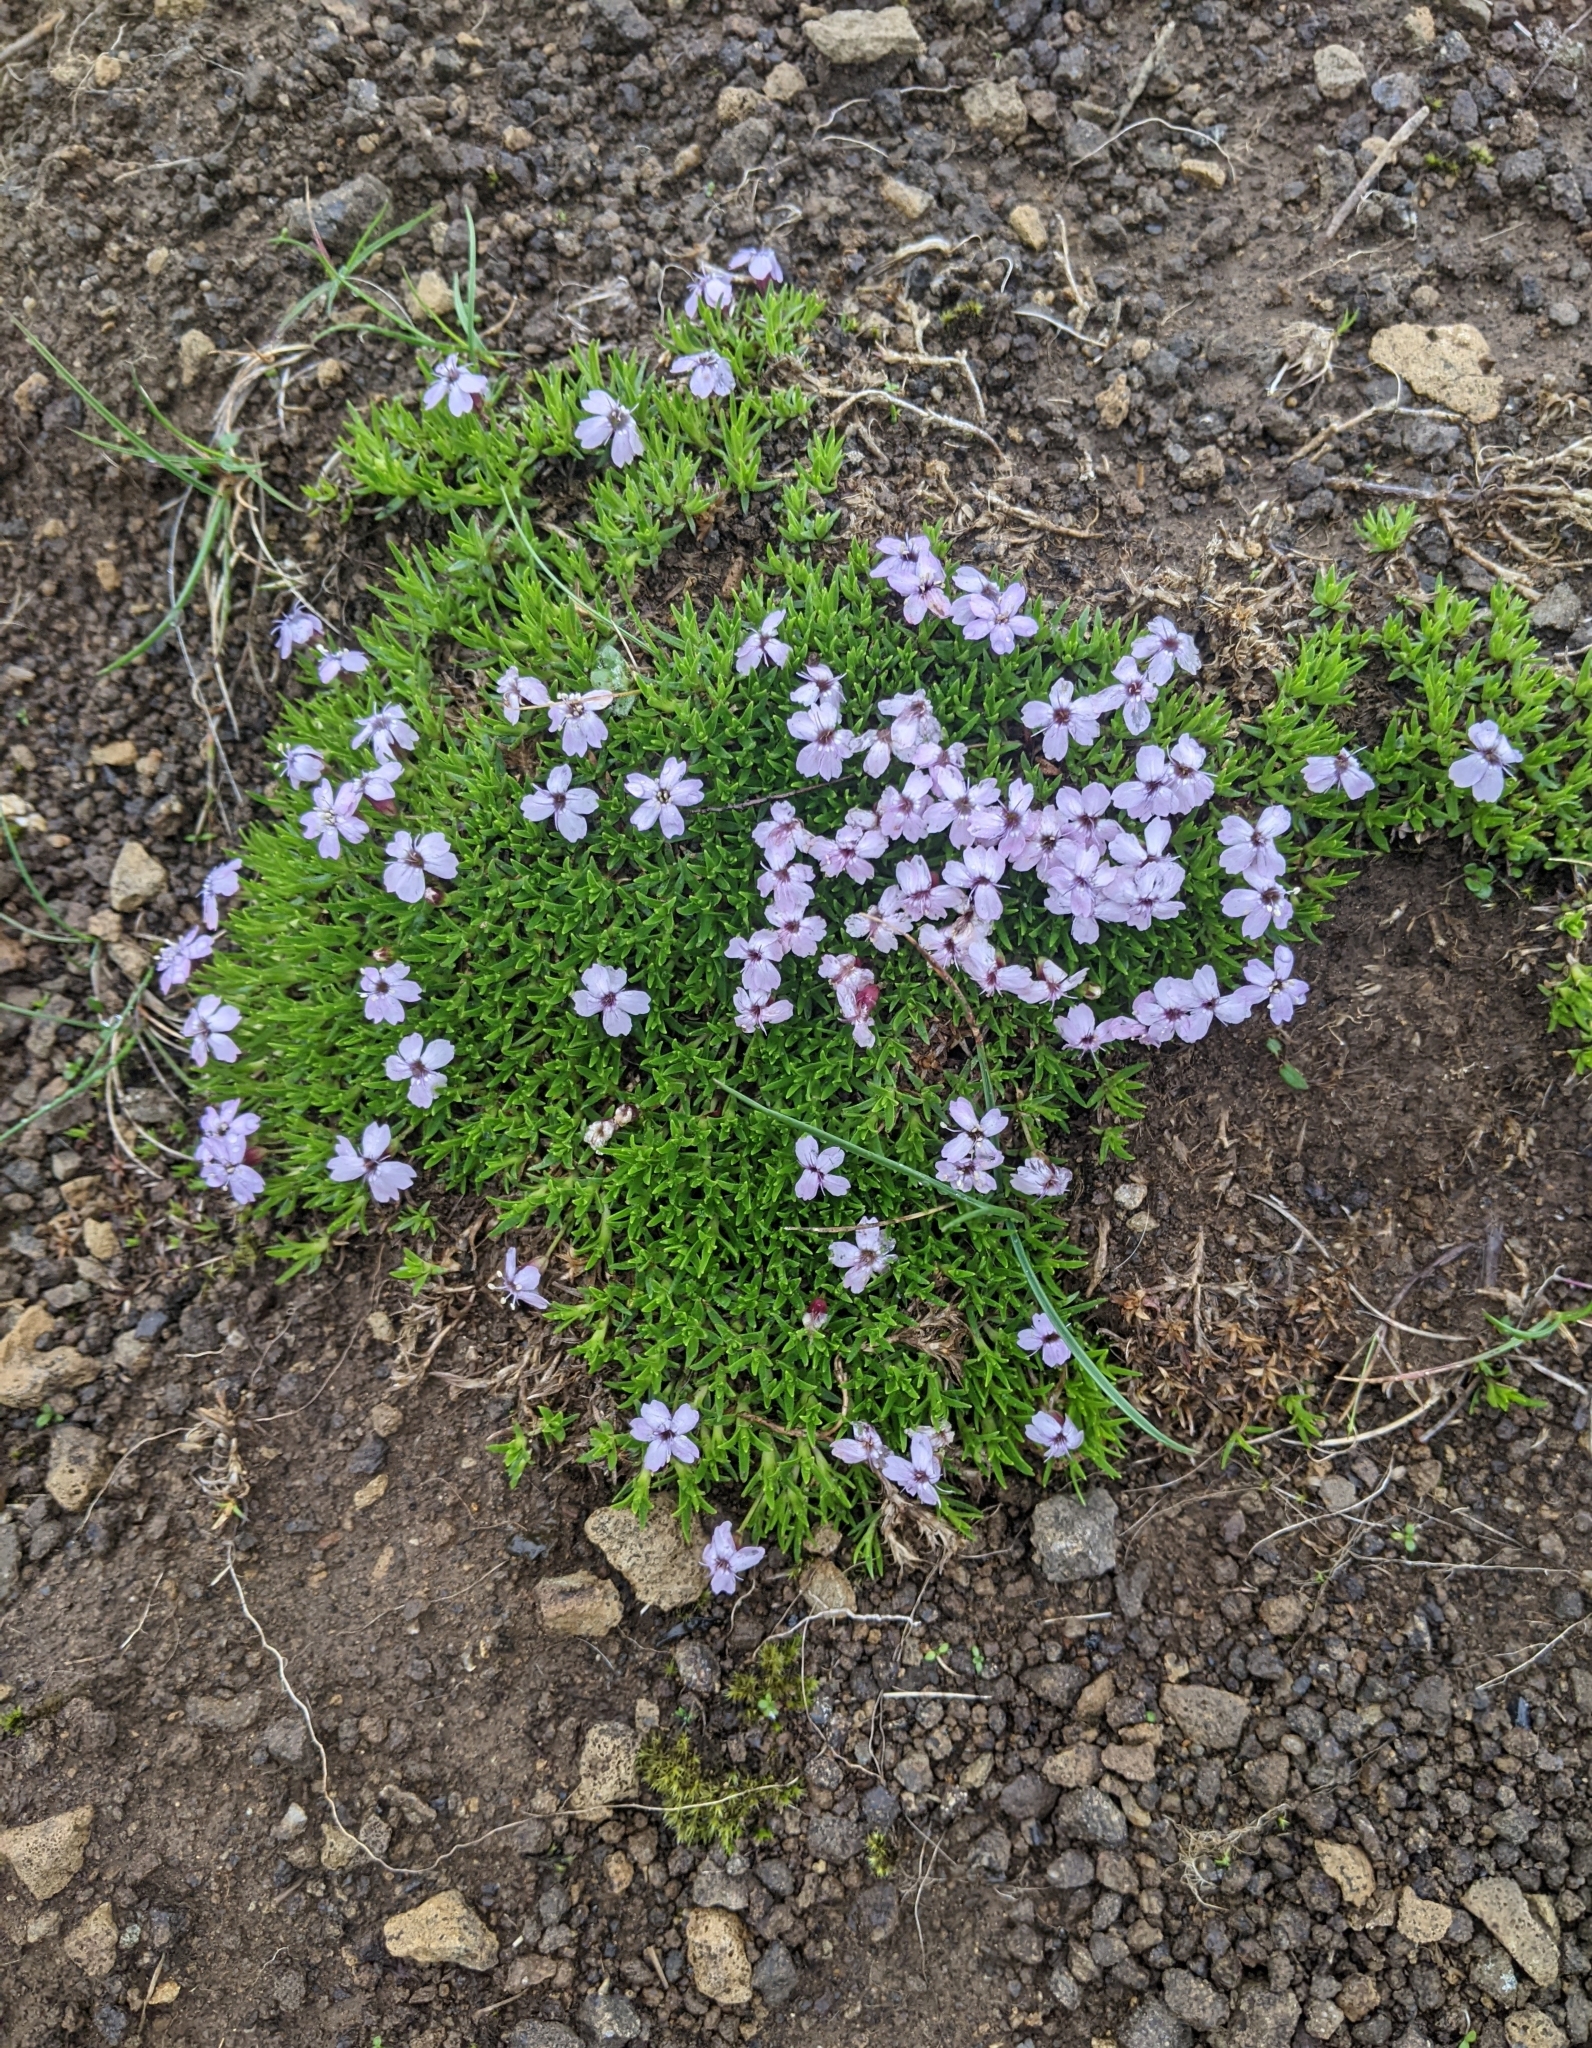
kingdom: Plantae
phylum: Tracheophyta
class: Magnoliopsida
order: Caryophyllales
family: Caryophyllaceae
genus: Silene
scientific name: Silene acaulis
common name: Moss campion
